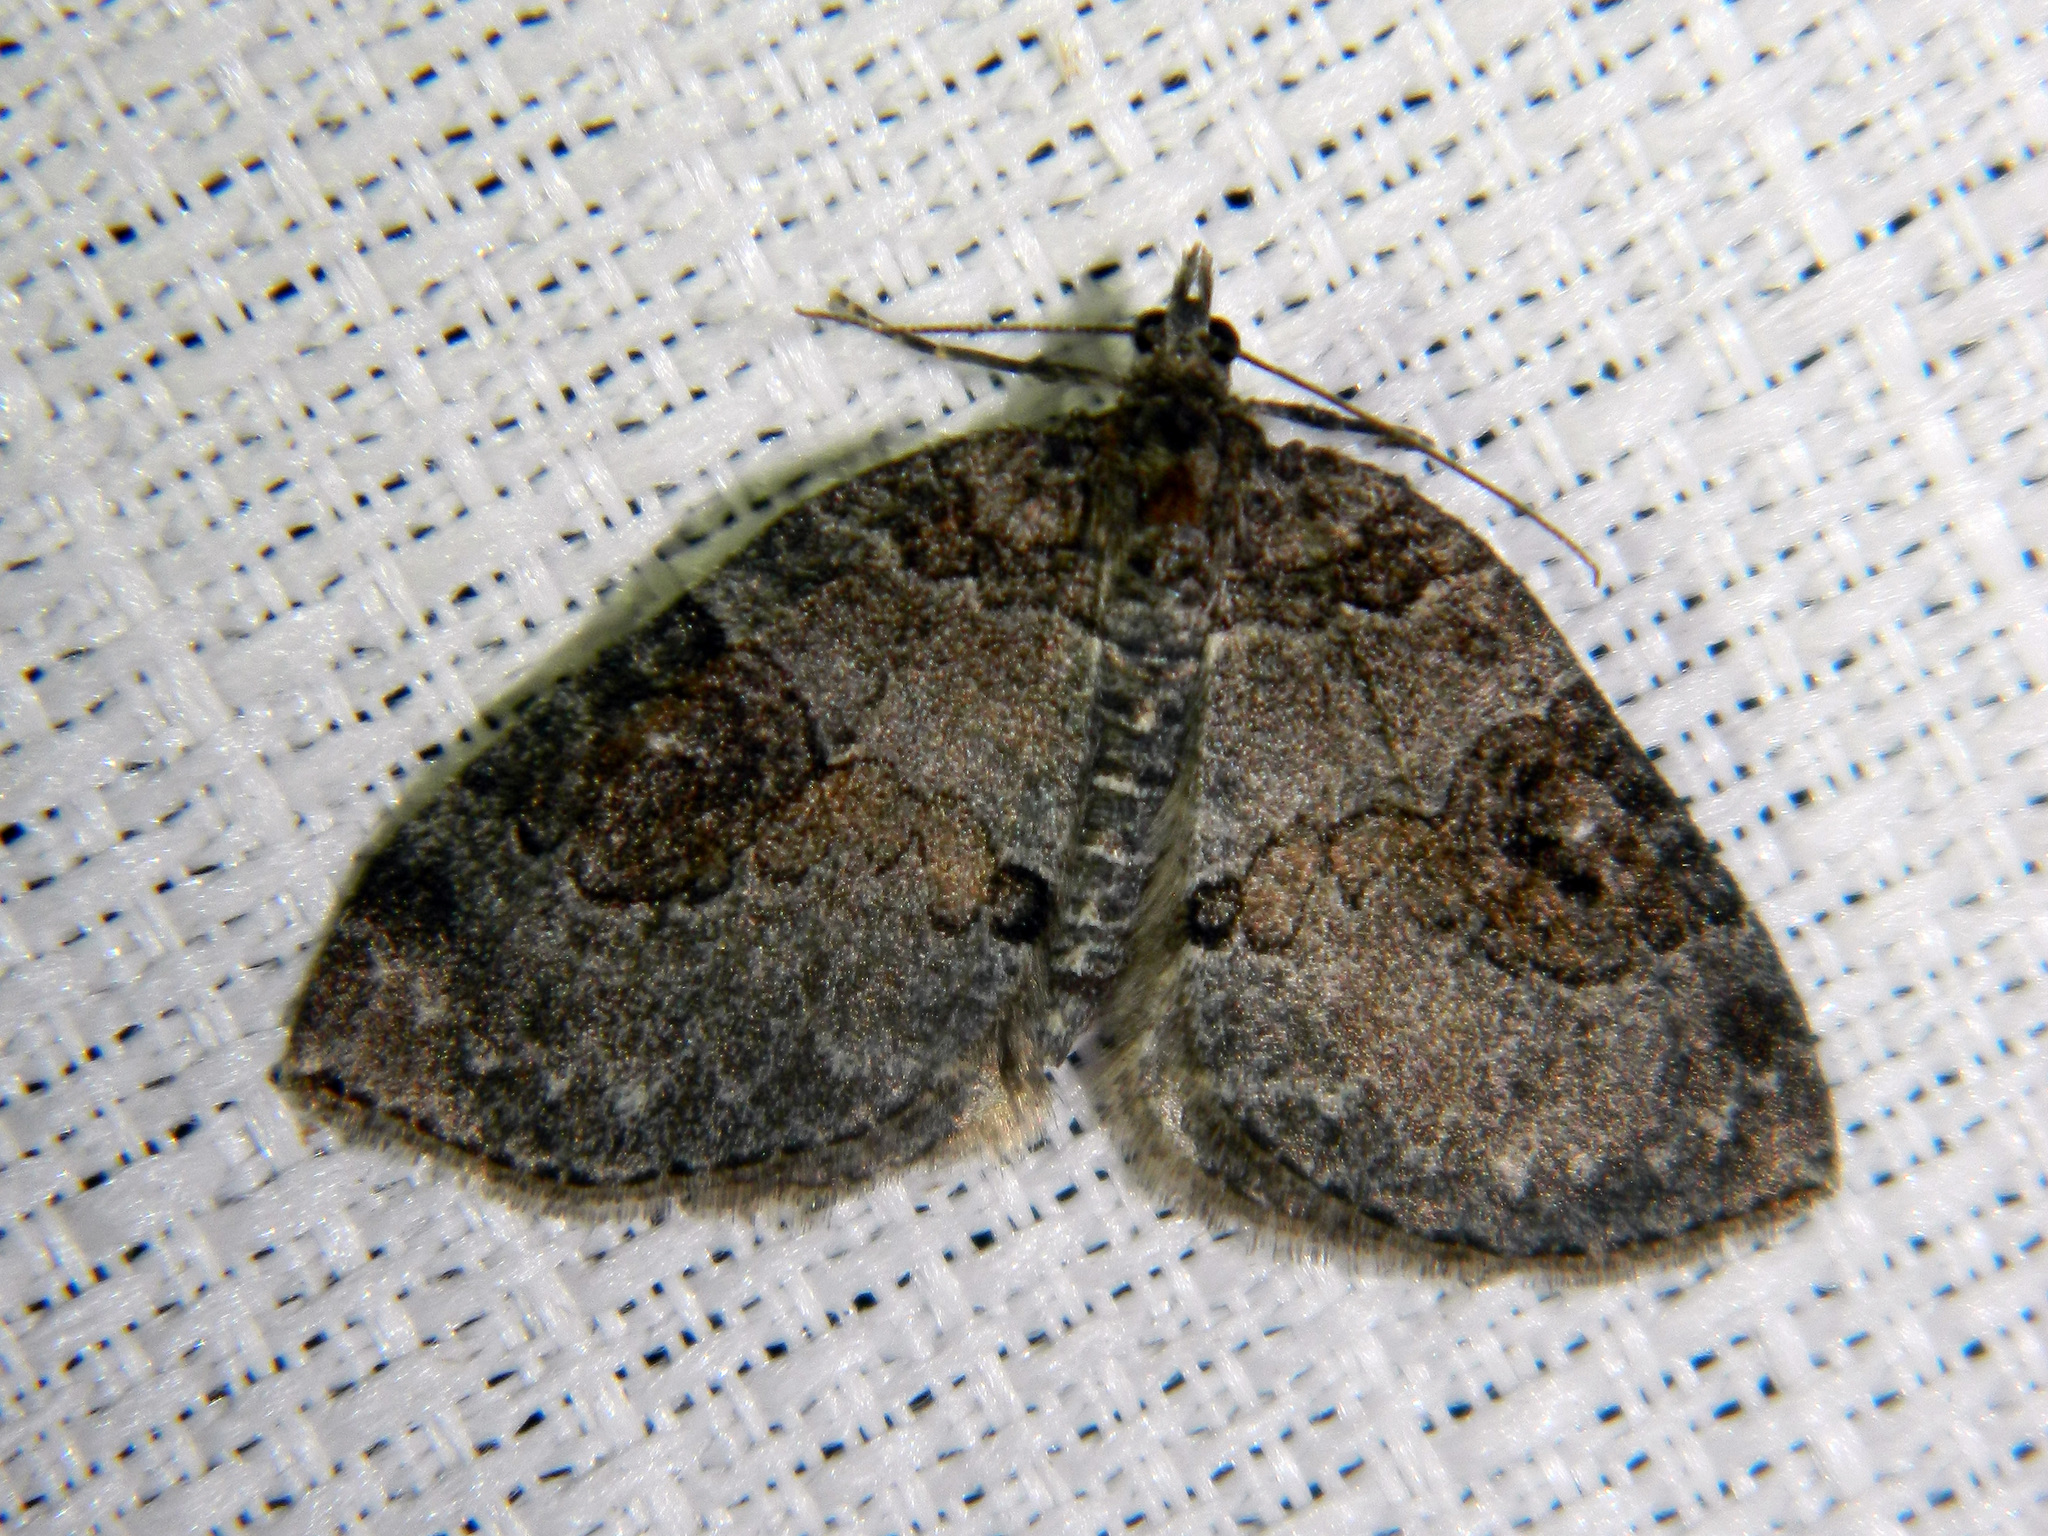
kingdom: Animalia
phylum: Arthropoda
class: Insecta
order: Lepidoptera
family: Geometridae
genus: Plemyria
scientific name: Plemyria georgii
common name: George's carpet moth
